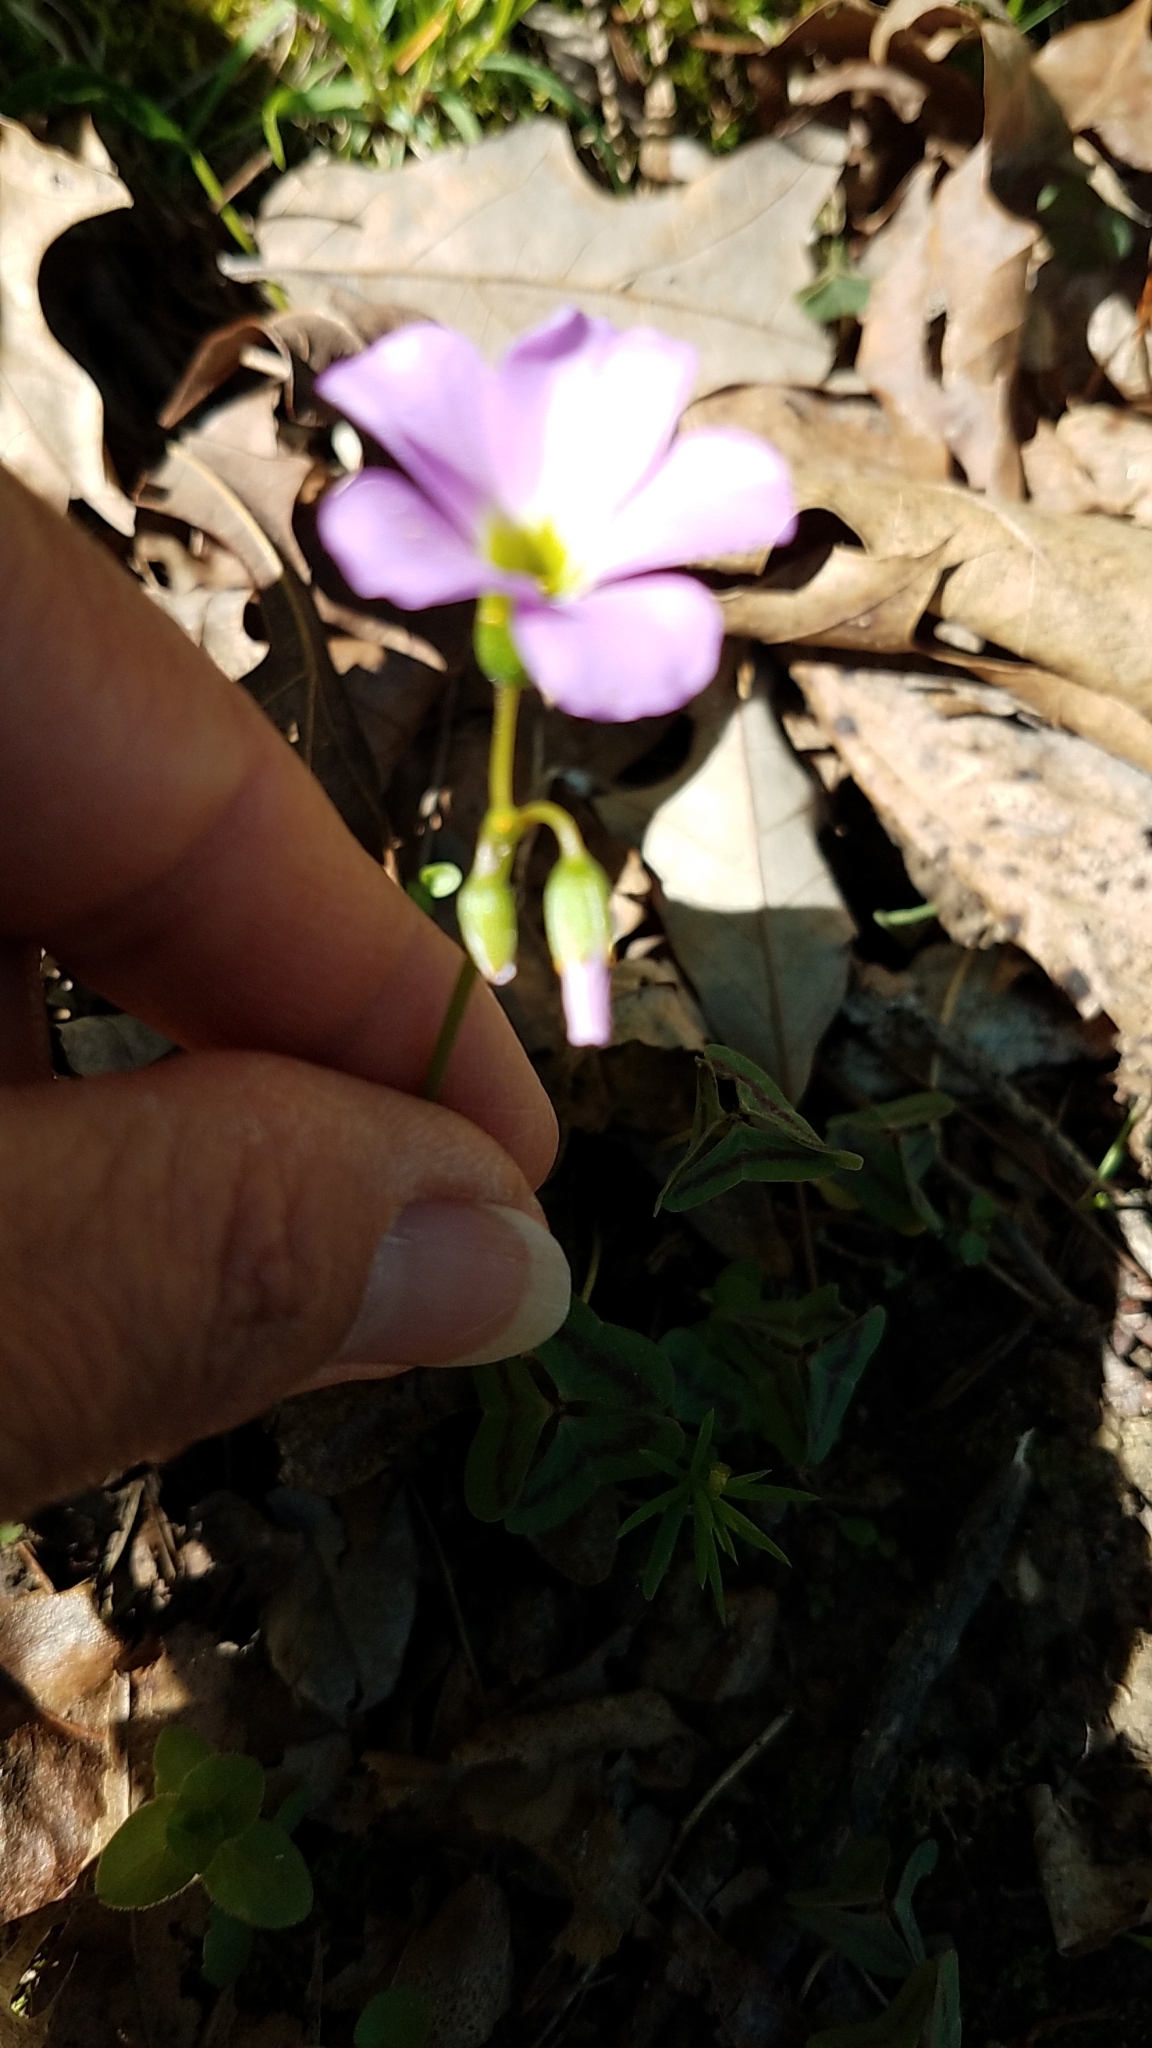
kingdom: Plantae
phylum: Tracheophyta
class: Magnoliopsida
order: Oxalidales
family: Oxalidaceae
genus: Oxalis
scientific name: Oxalis violacea
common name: Violet wood-sorrel
